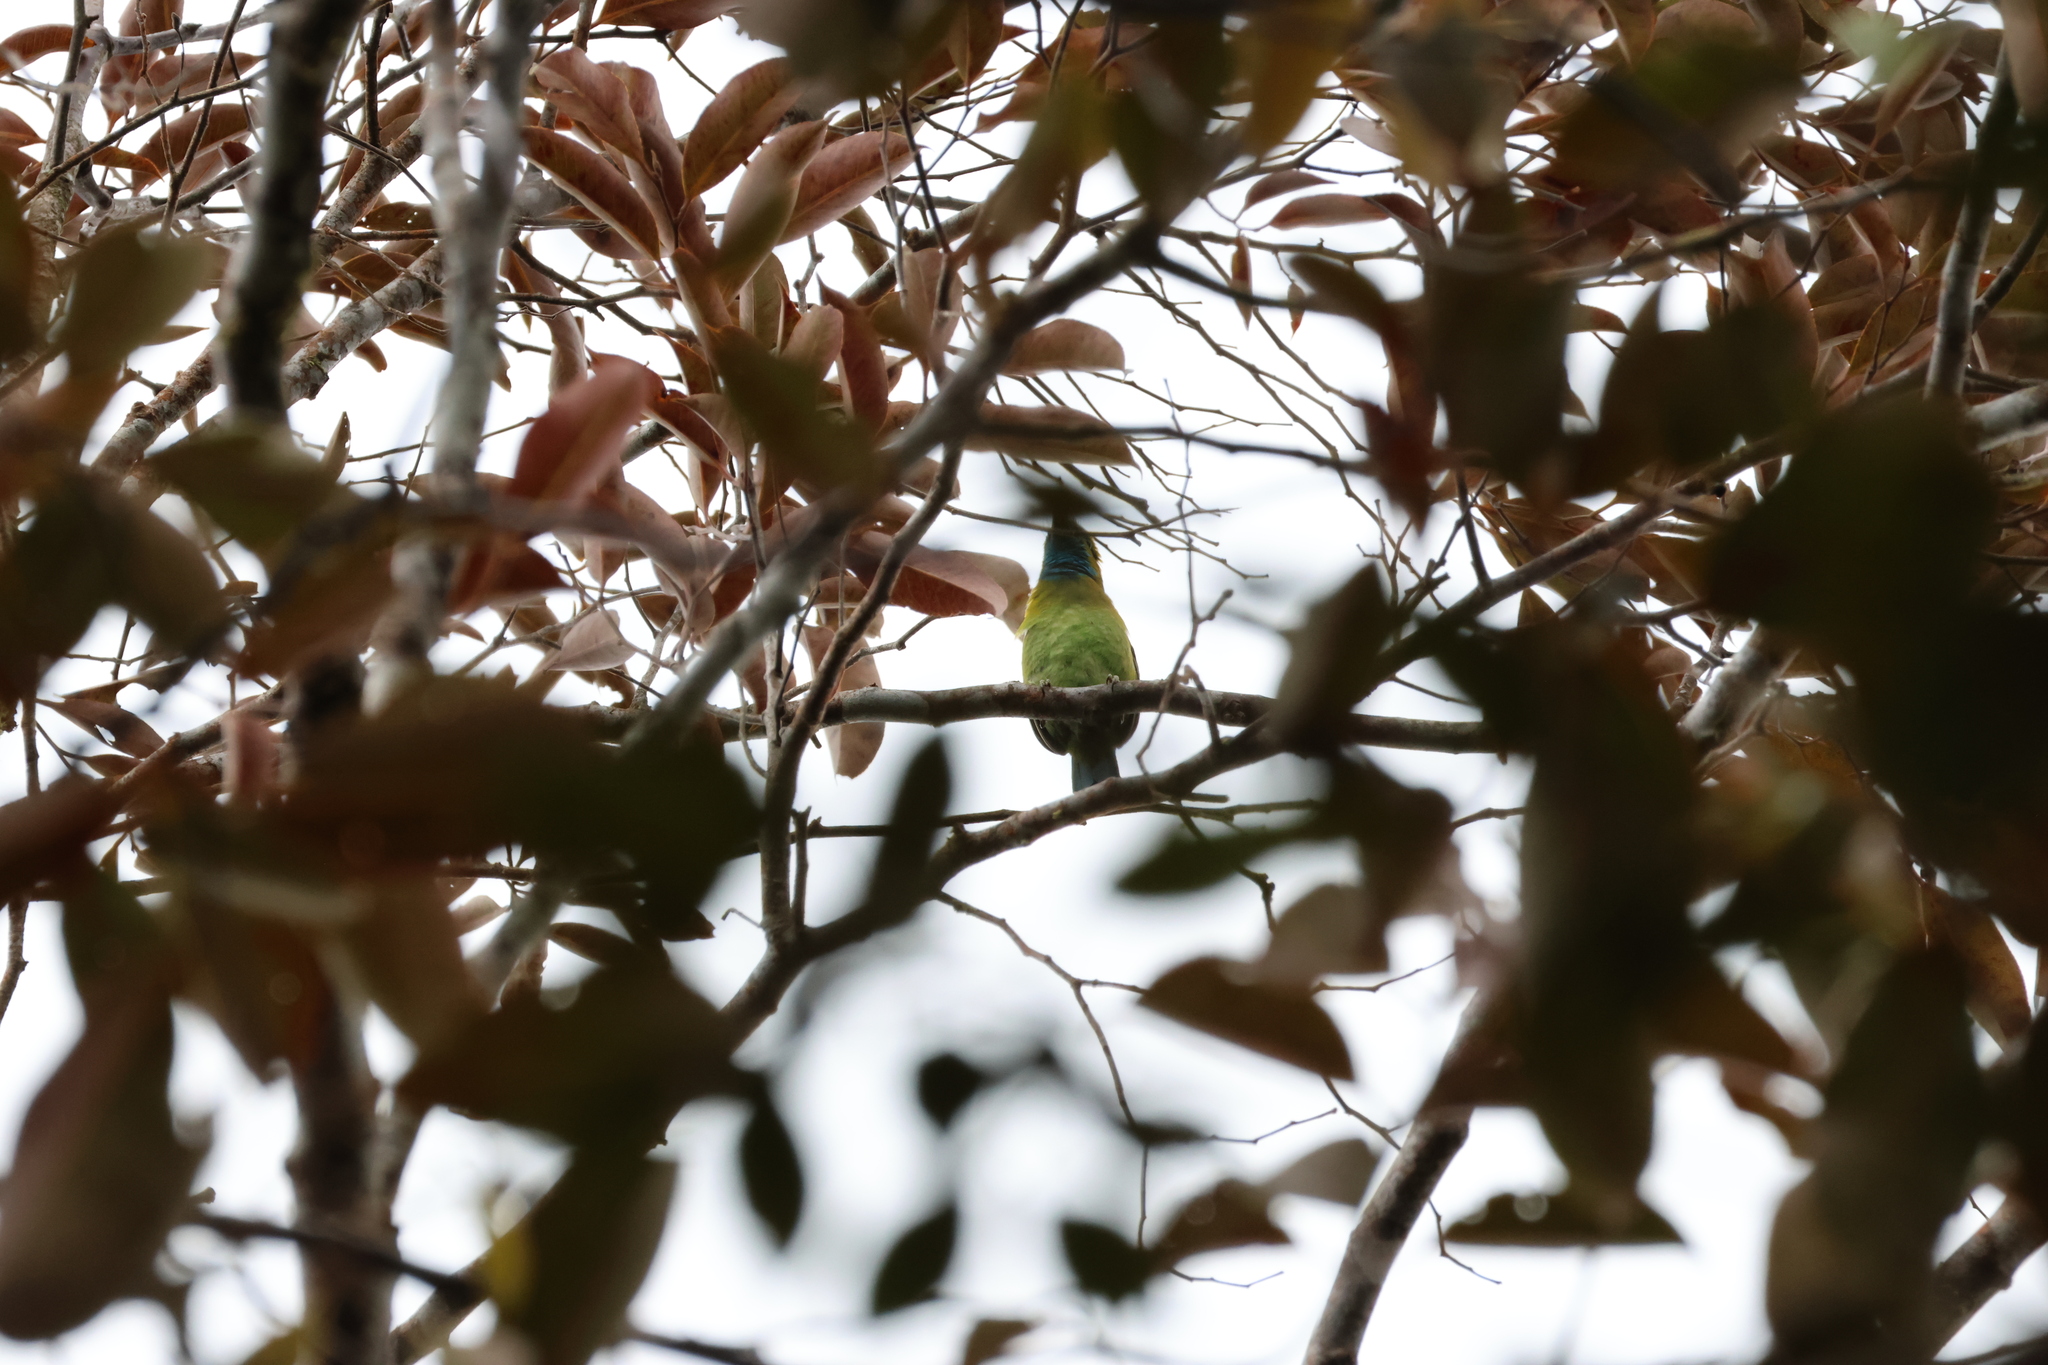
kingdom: Animalia
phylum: Chordata
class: Aves
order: Piciformes
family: Megalaimidae
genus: Psilopogon
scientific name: Psilopogon pulcherrimus
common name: Golden-naped barbet
